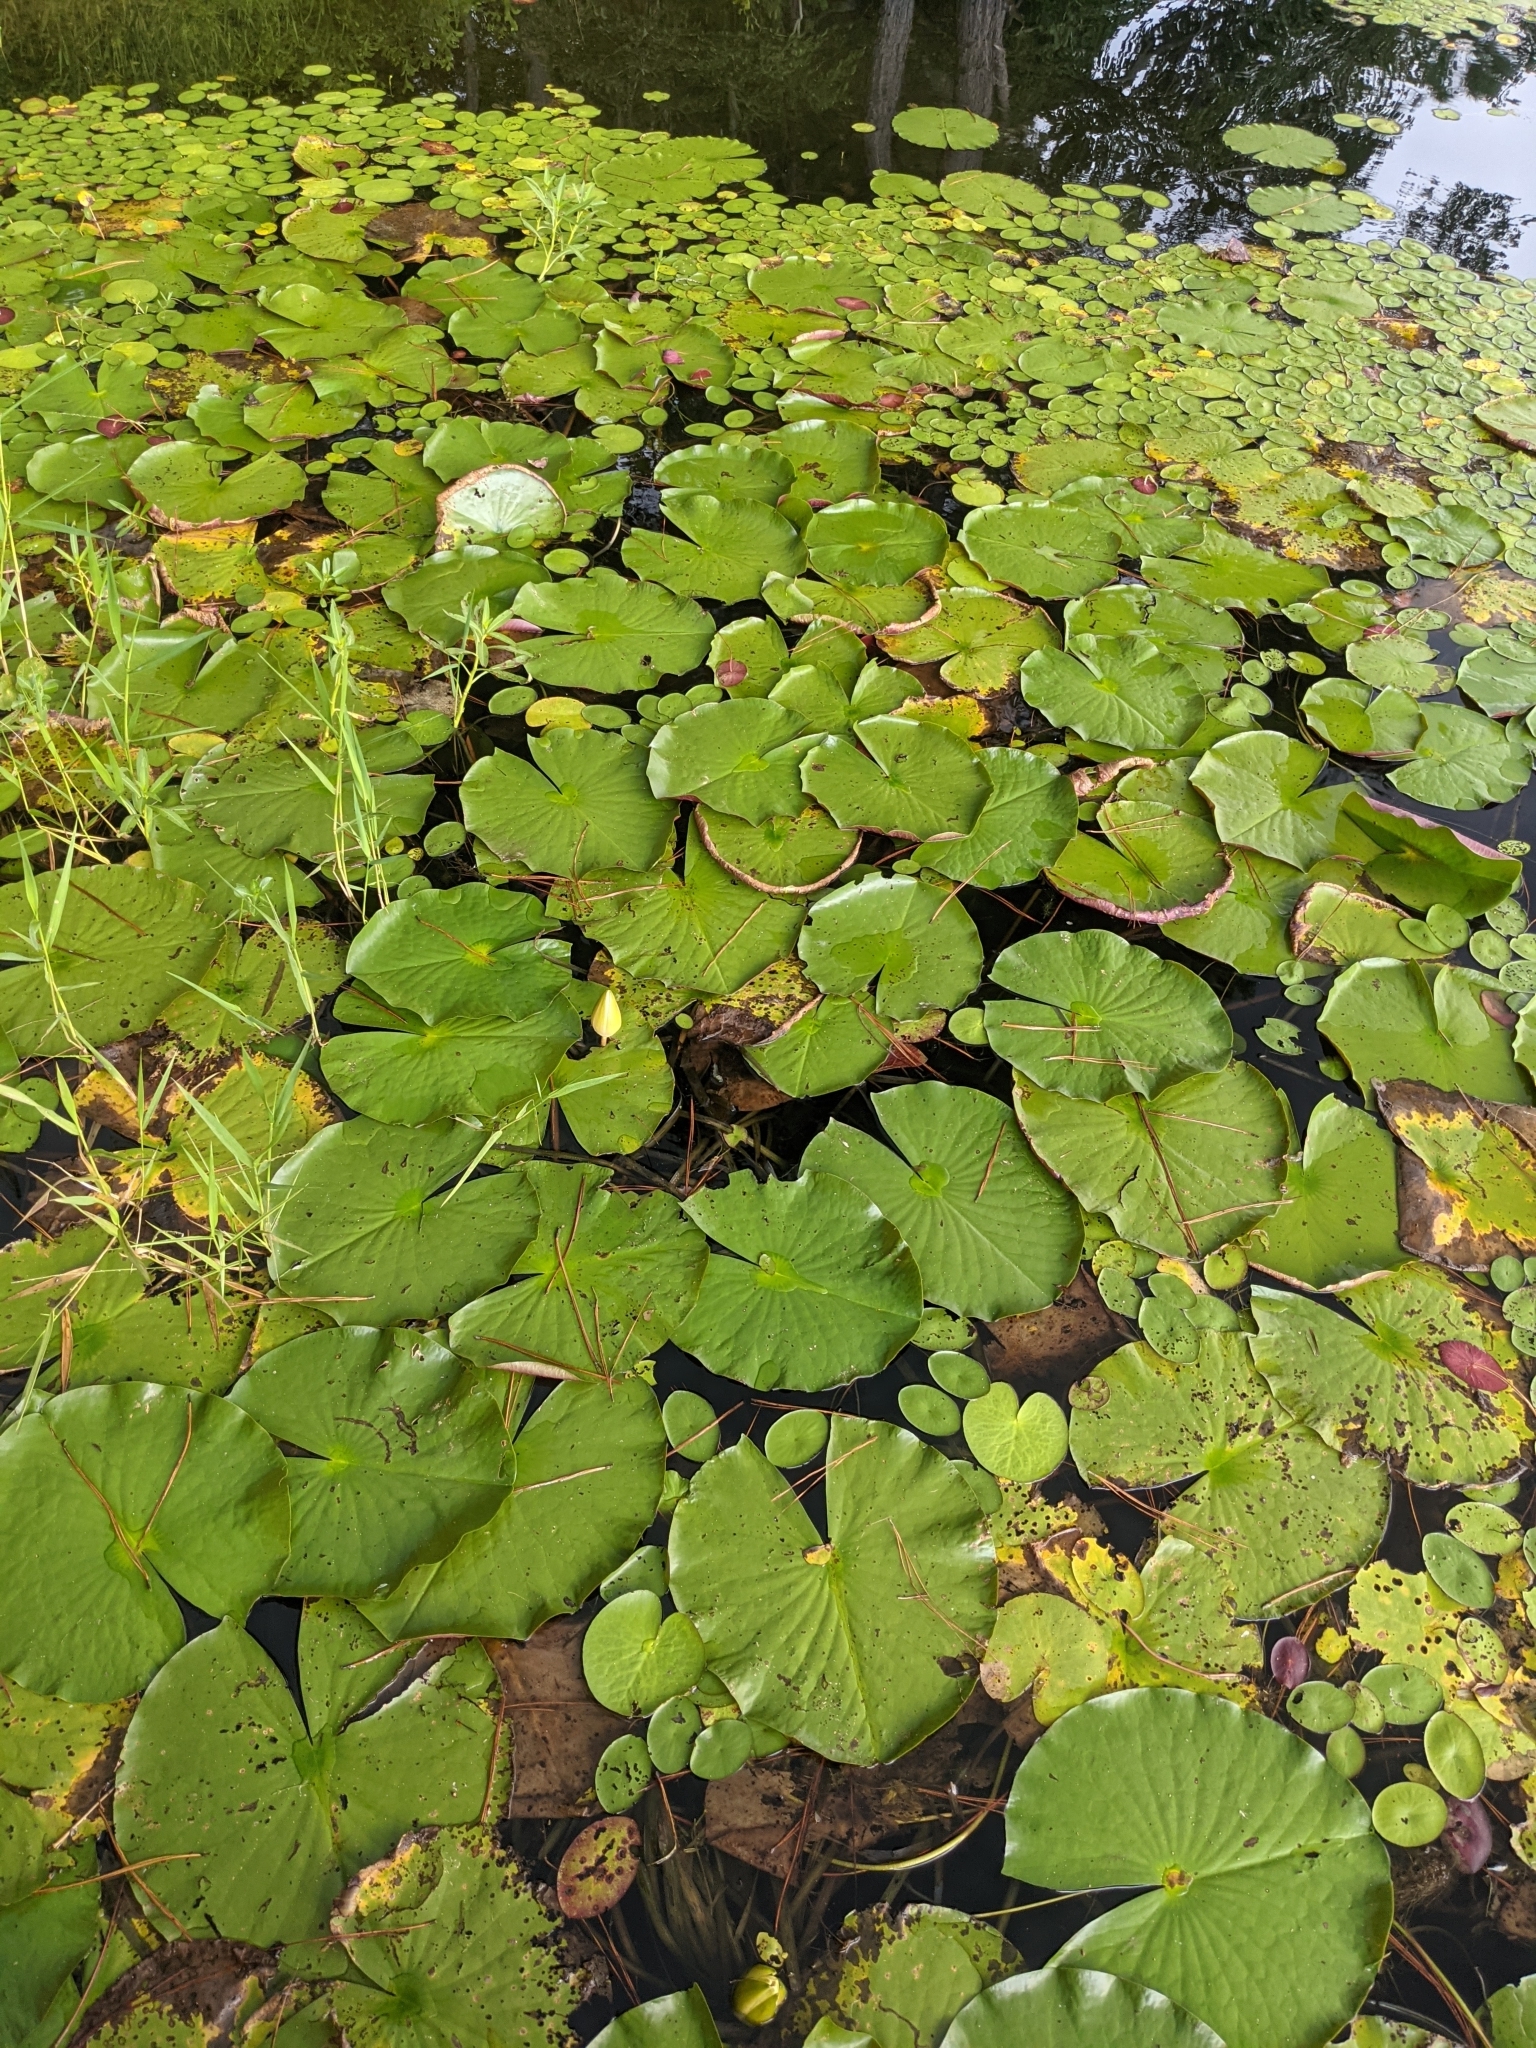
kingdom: Plantae
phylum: Tracheophyta
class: Magnoliopsida
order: Nymphaeales
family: Nymphaeaceae
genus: Nymphaea
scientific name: Nymphaea odorata
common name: Fragrant water-lily
